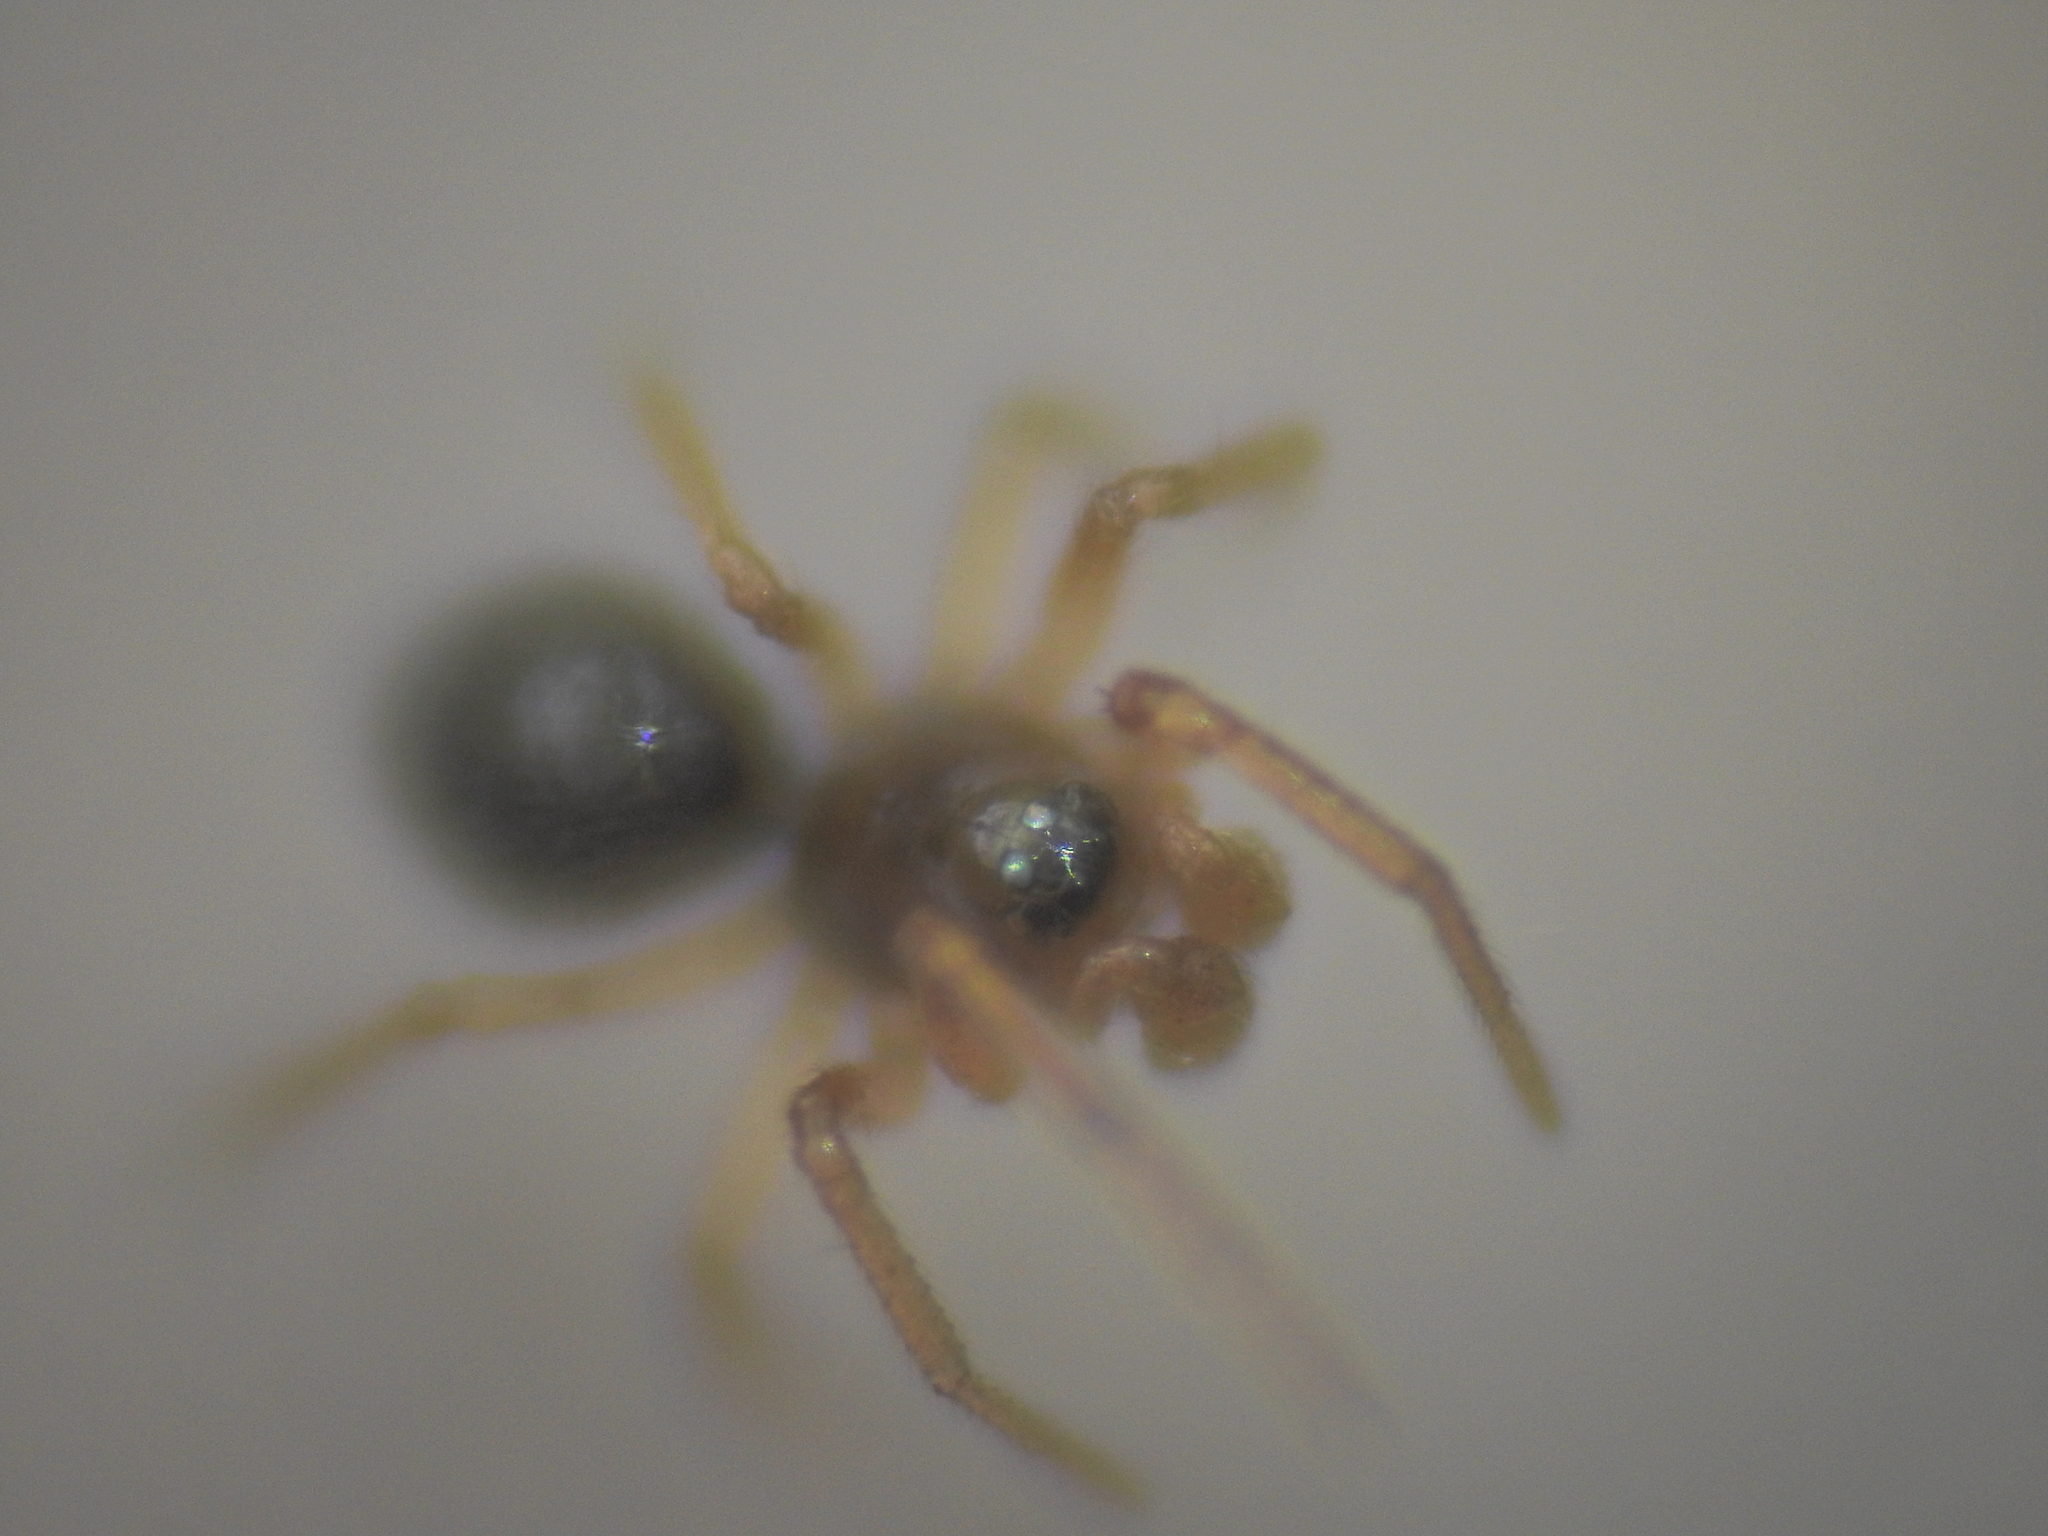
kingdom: Animalia
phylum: Arthropoda
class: Arachnida
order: Araneae
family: Linyphiidae
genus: Erigone
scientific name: Erigone eisenschmidti
